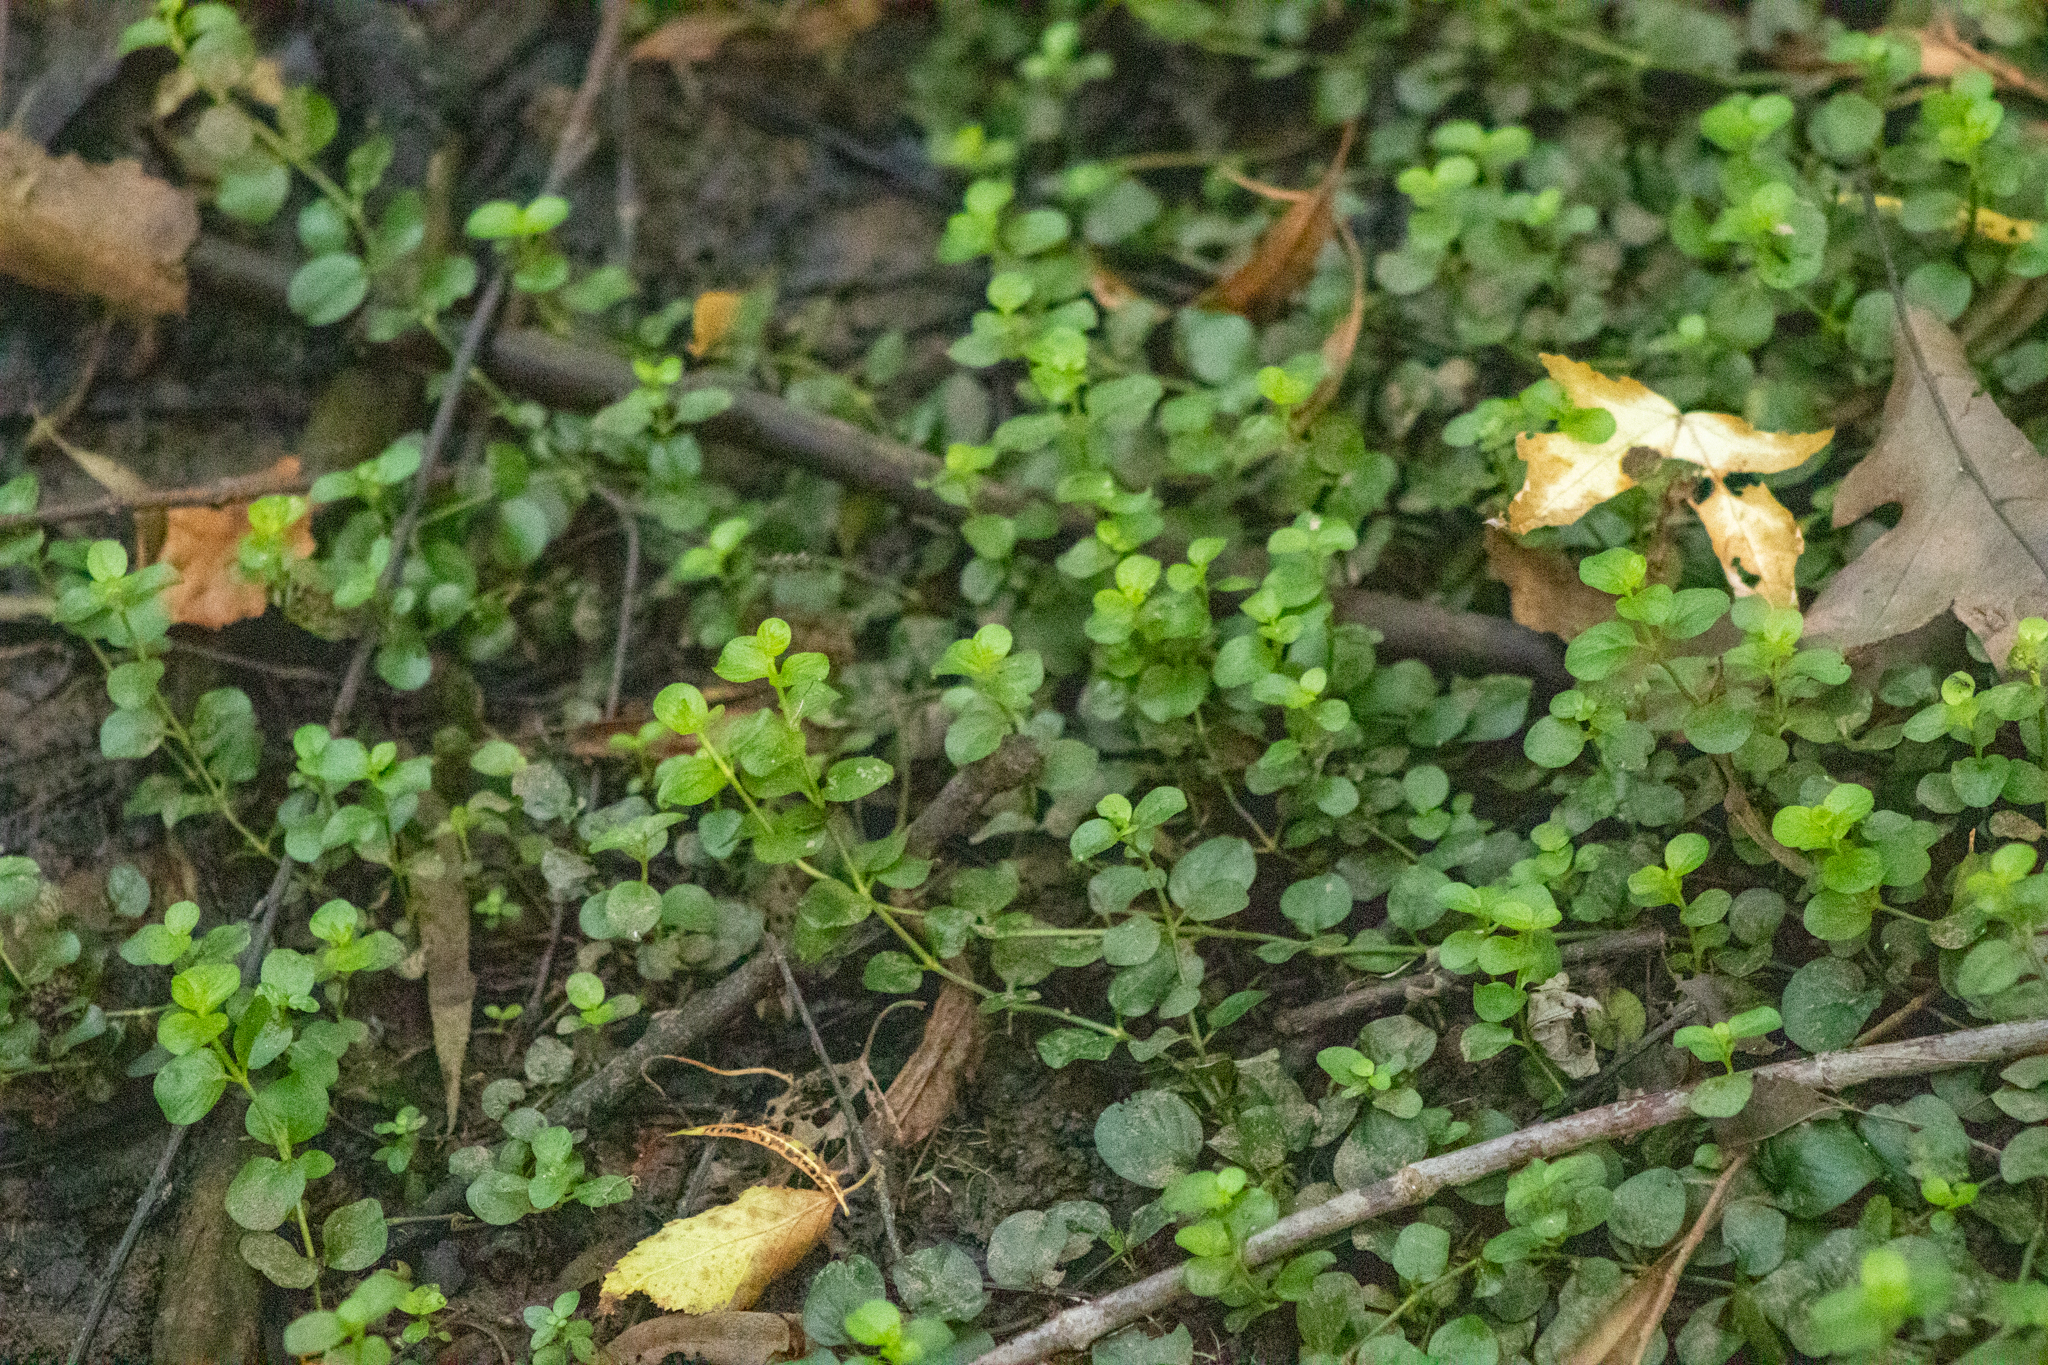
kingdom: Plantae
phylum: Tracheophyta
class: Magnoliopsida
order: Ericales
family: Primulaceae
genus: Lysimachia
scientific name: Lysimachia nummularia
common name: Moneywort
